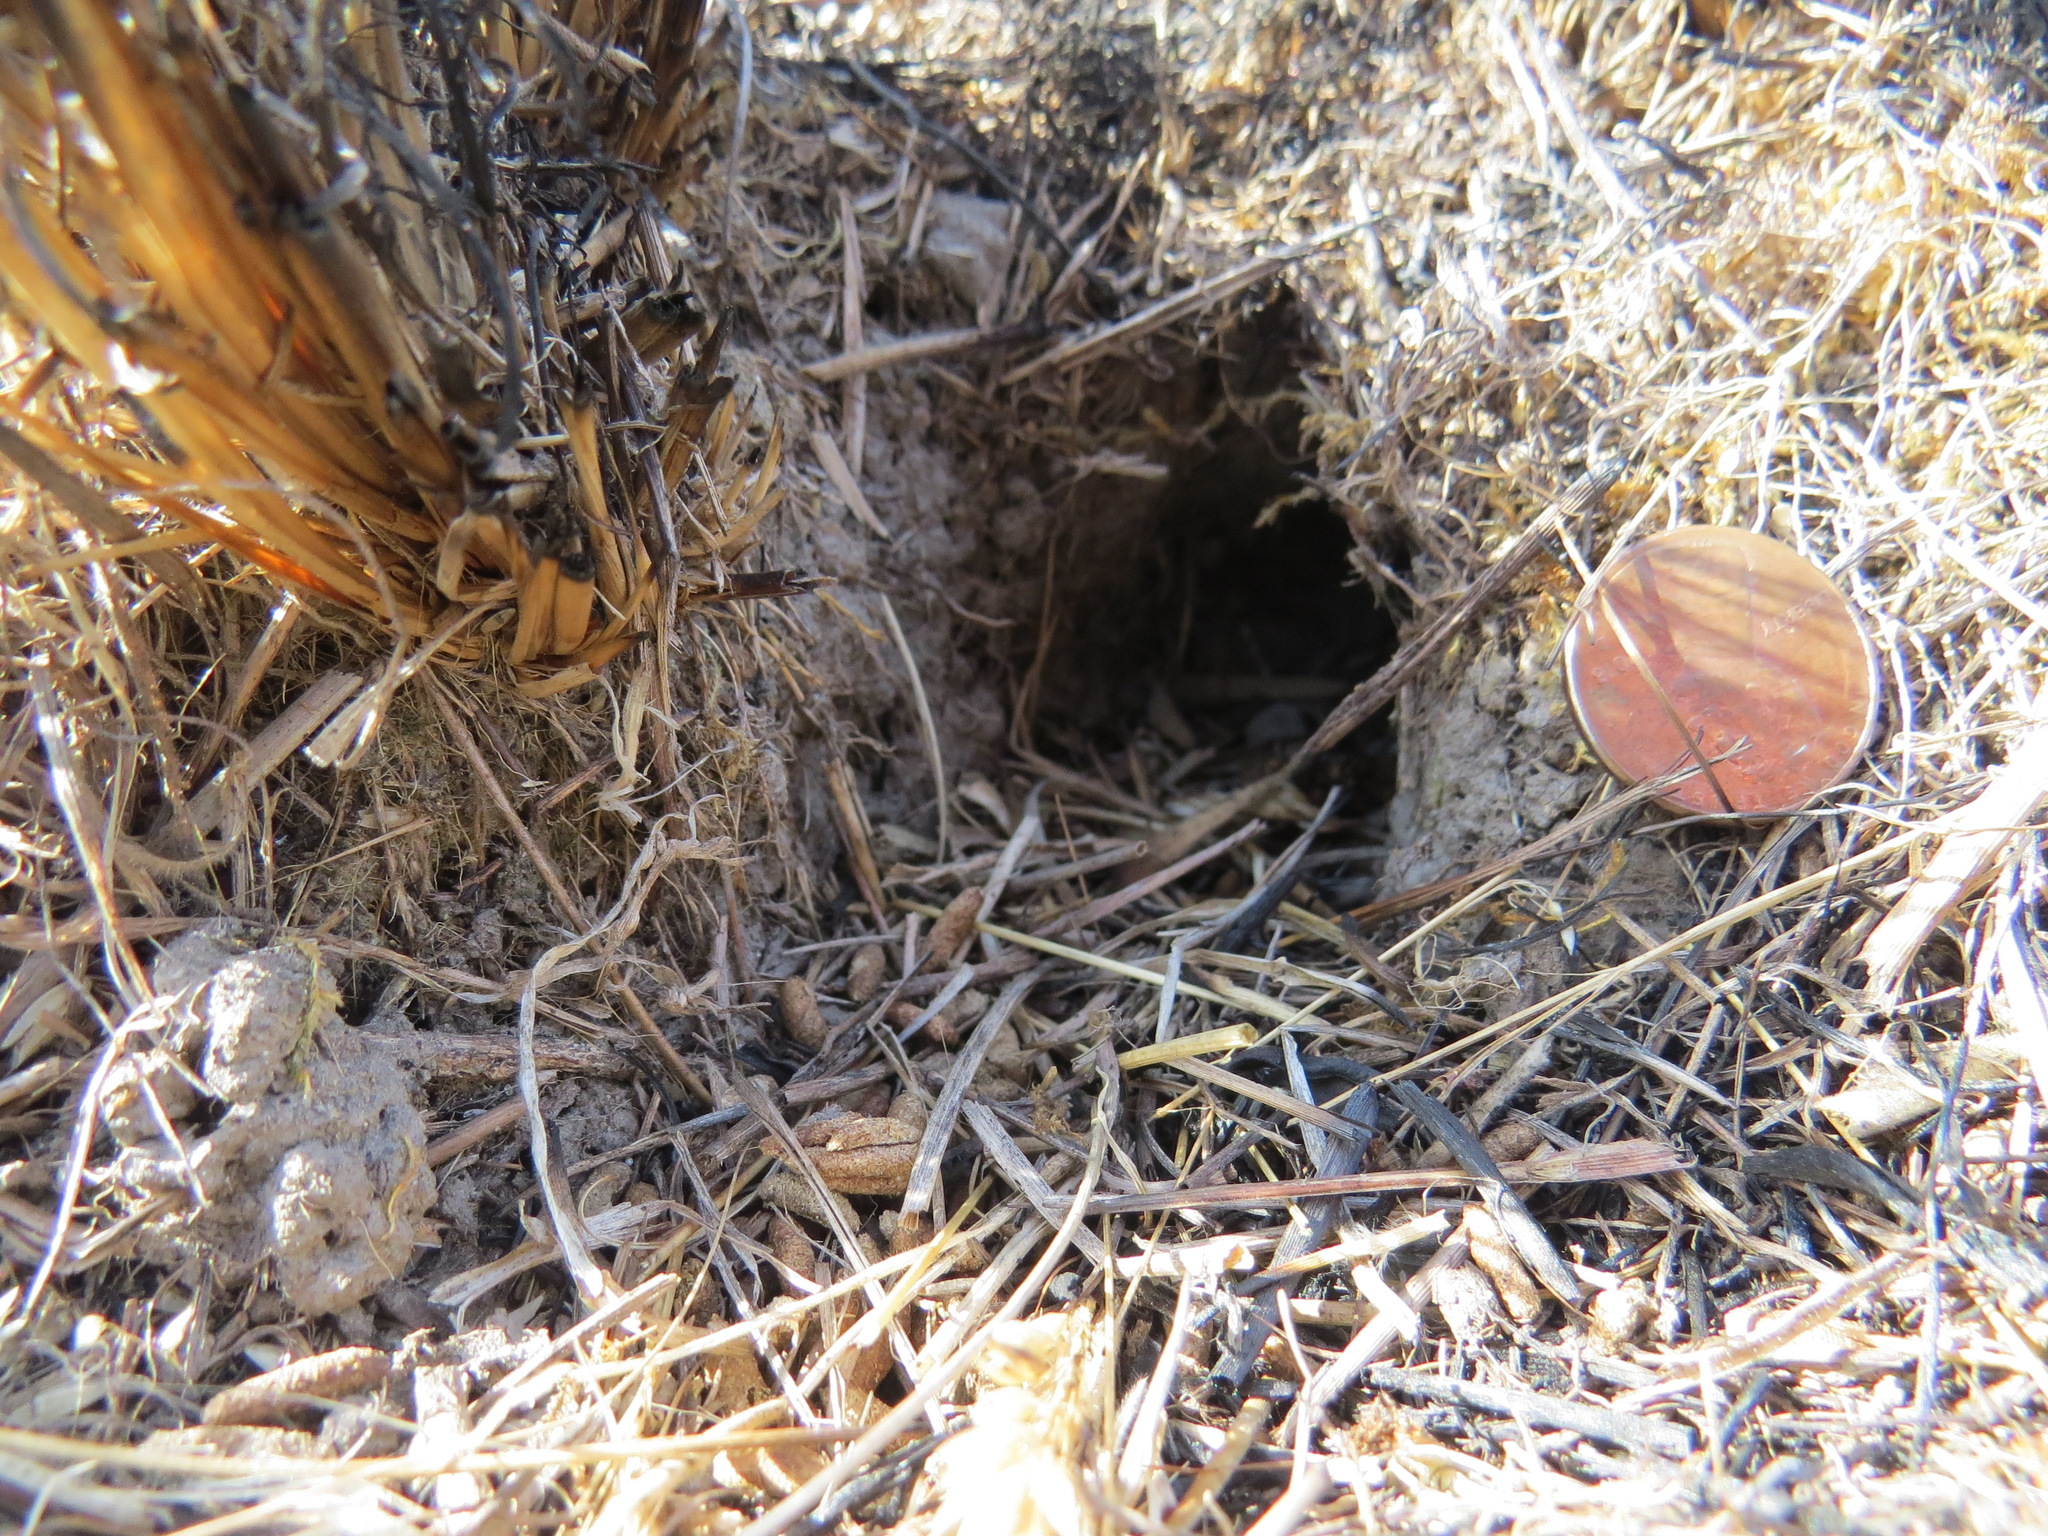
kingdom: Animalia
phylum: Chordata
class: Mammalia
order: Rodentia
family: Cricetidae
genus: Microtus
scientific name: Microtus californicus
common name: California vole
